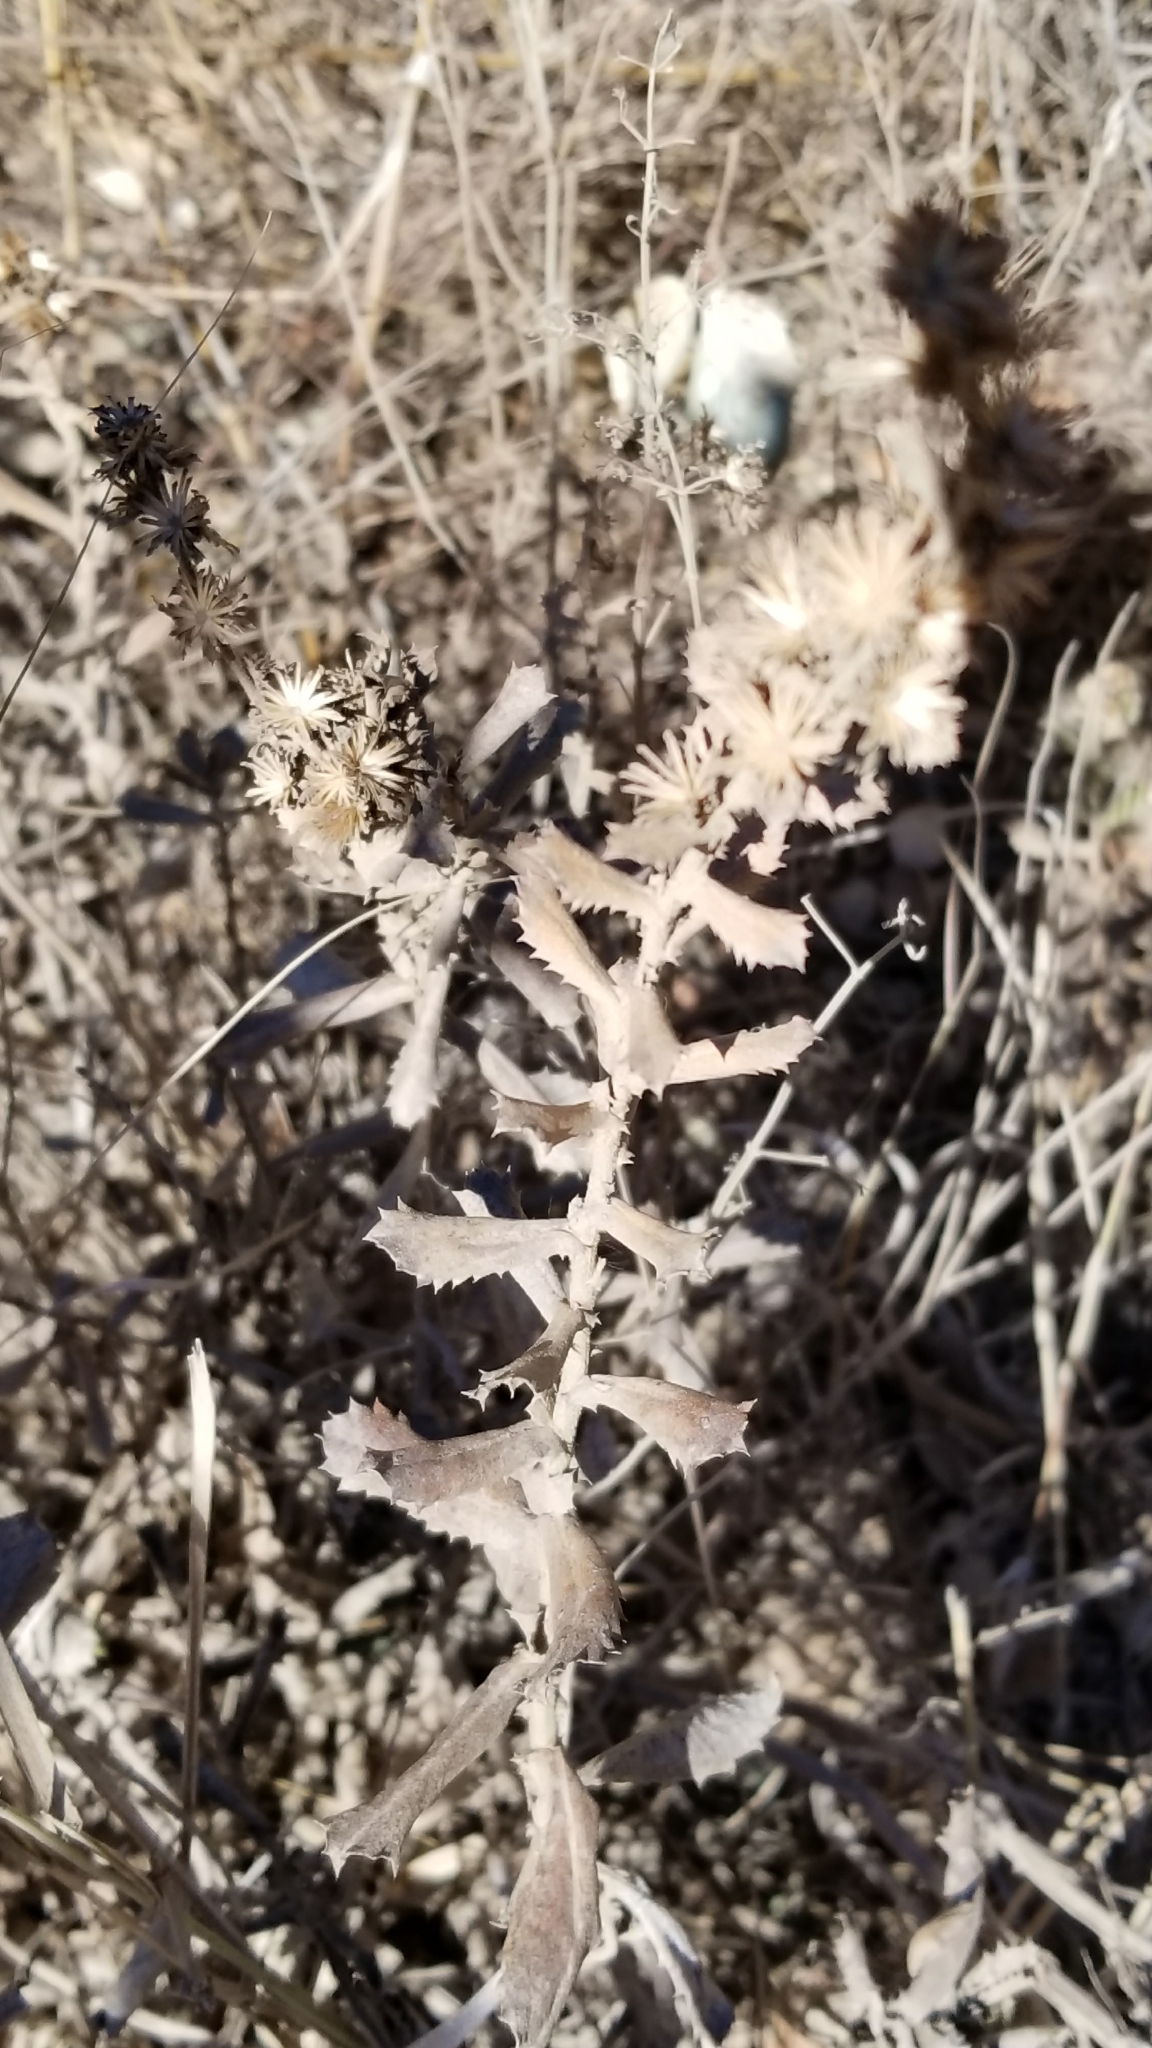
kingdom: Plantae
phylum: Tracheophyta
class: Magnoliopsida
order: Asterales
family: Asteraceae
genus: Hazardia
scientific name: Hazardia squarrosa
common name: Saw-tooth goldenbush
